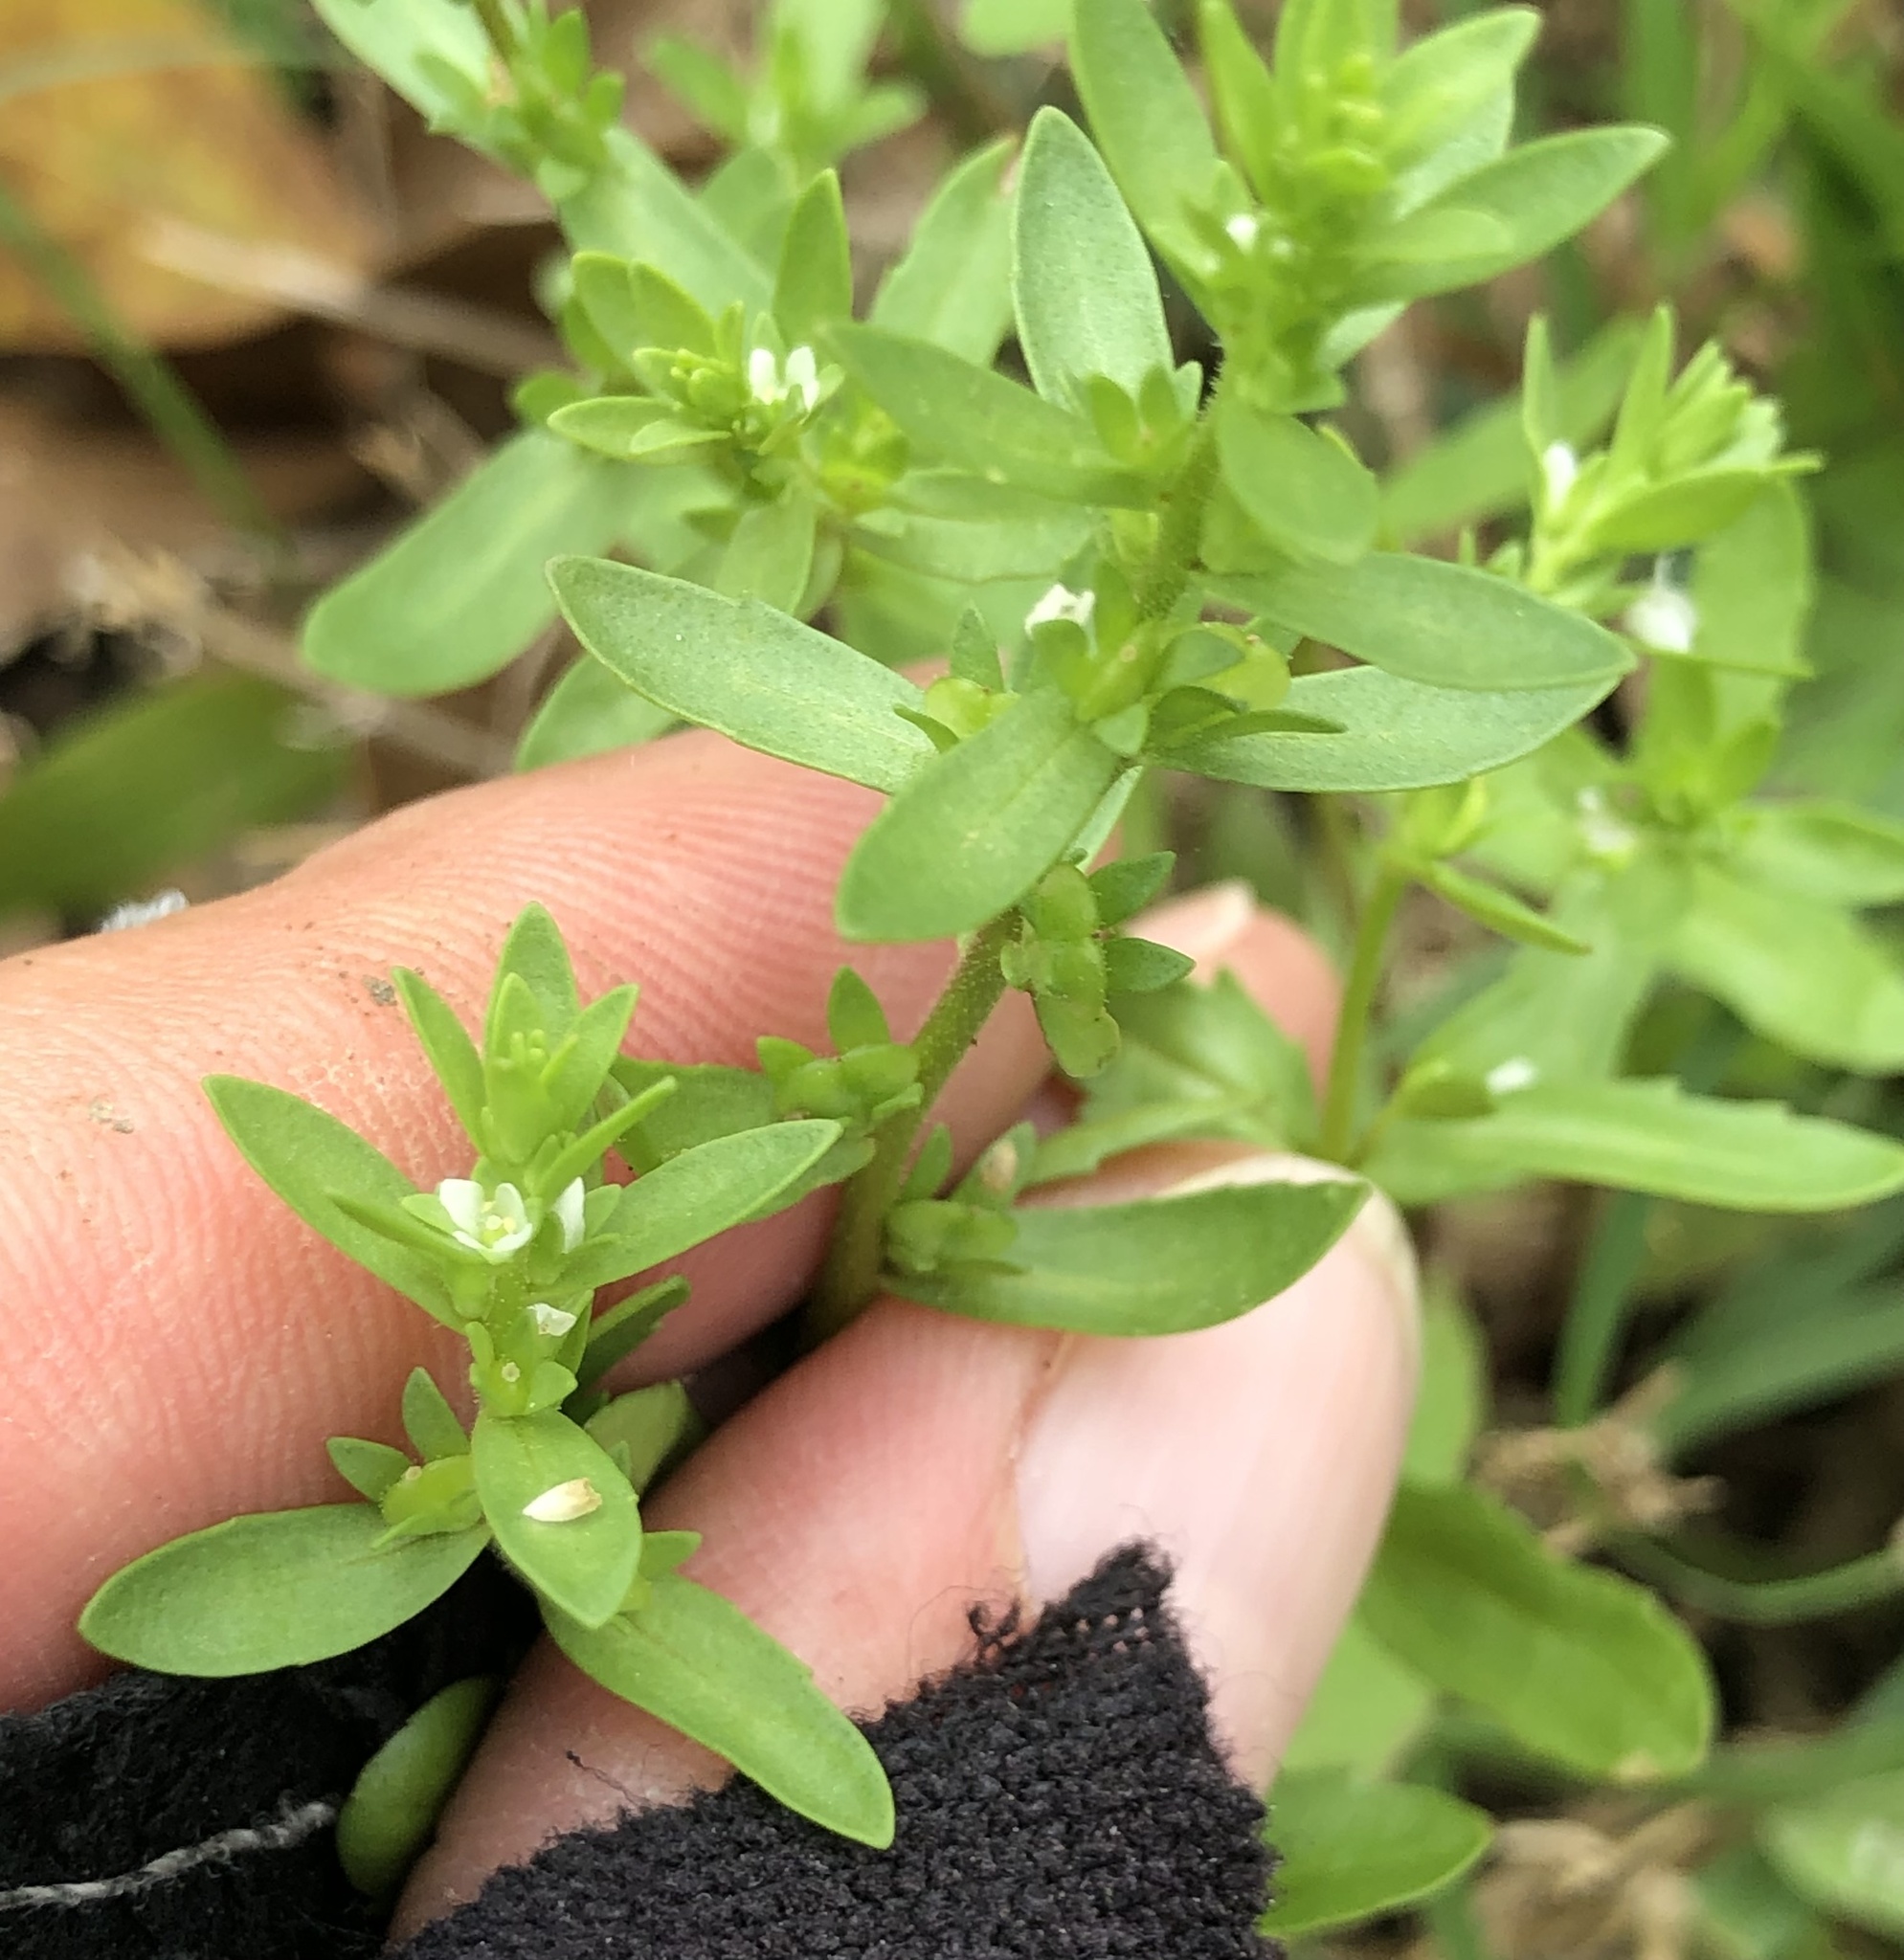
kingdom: Plantae
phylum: Tracheophyta
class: Magnoliopsida
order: Lamiales
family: Plantaginaceae
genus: Veronica
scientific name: Veronica peregrina
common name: Neckweed
